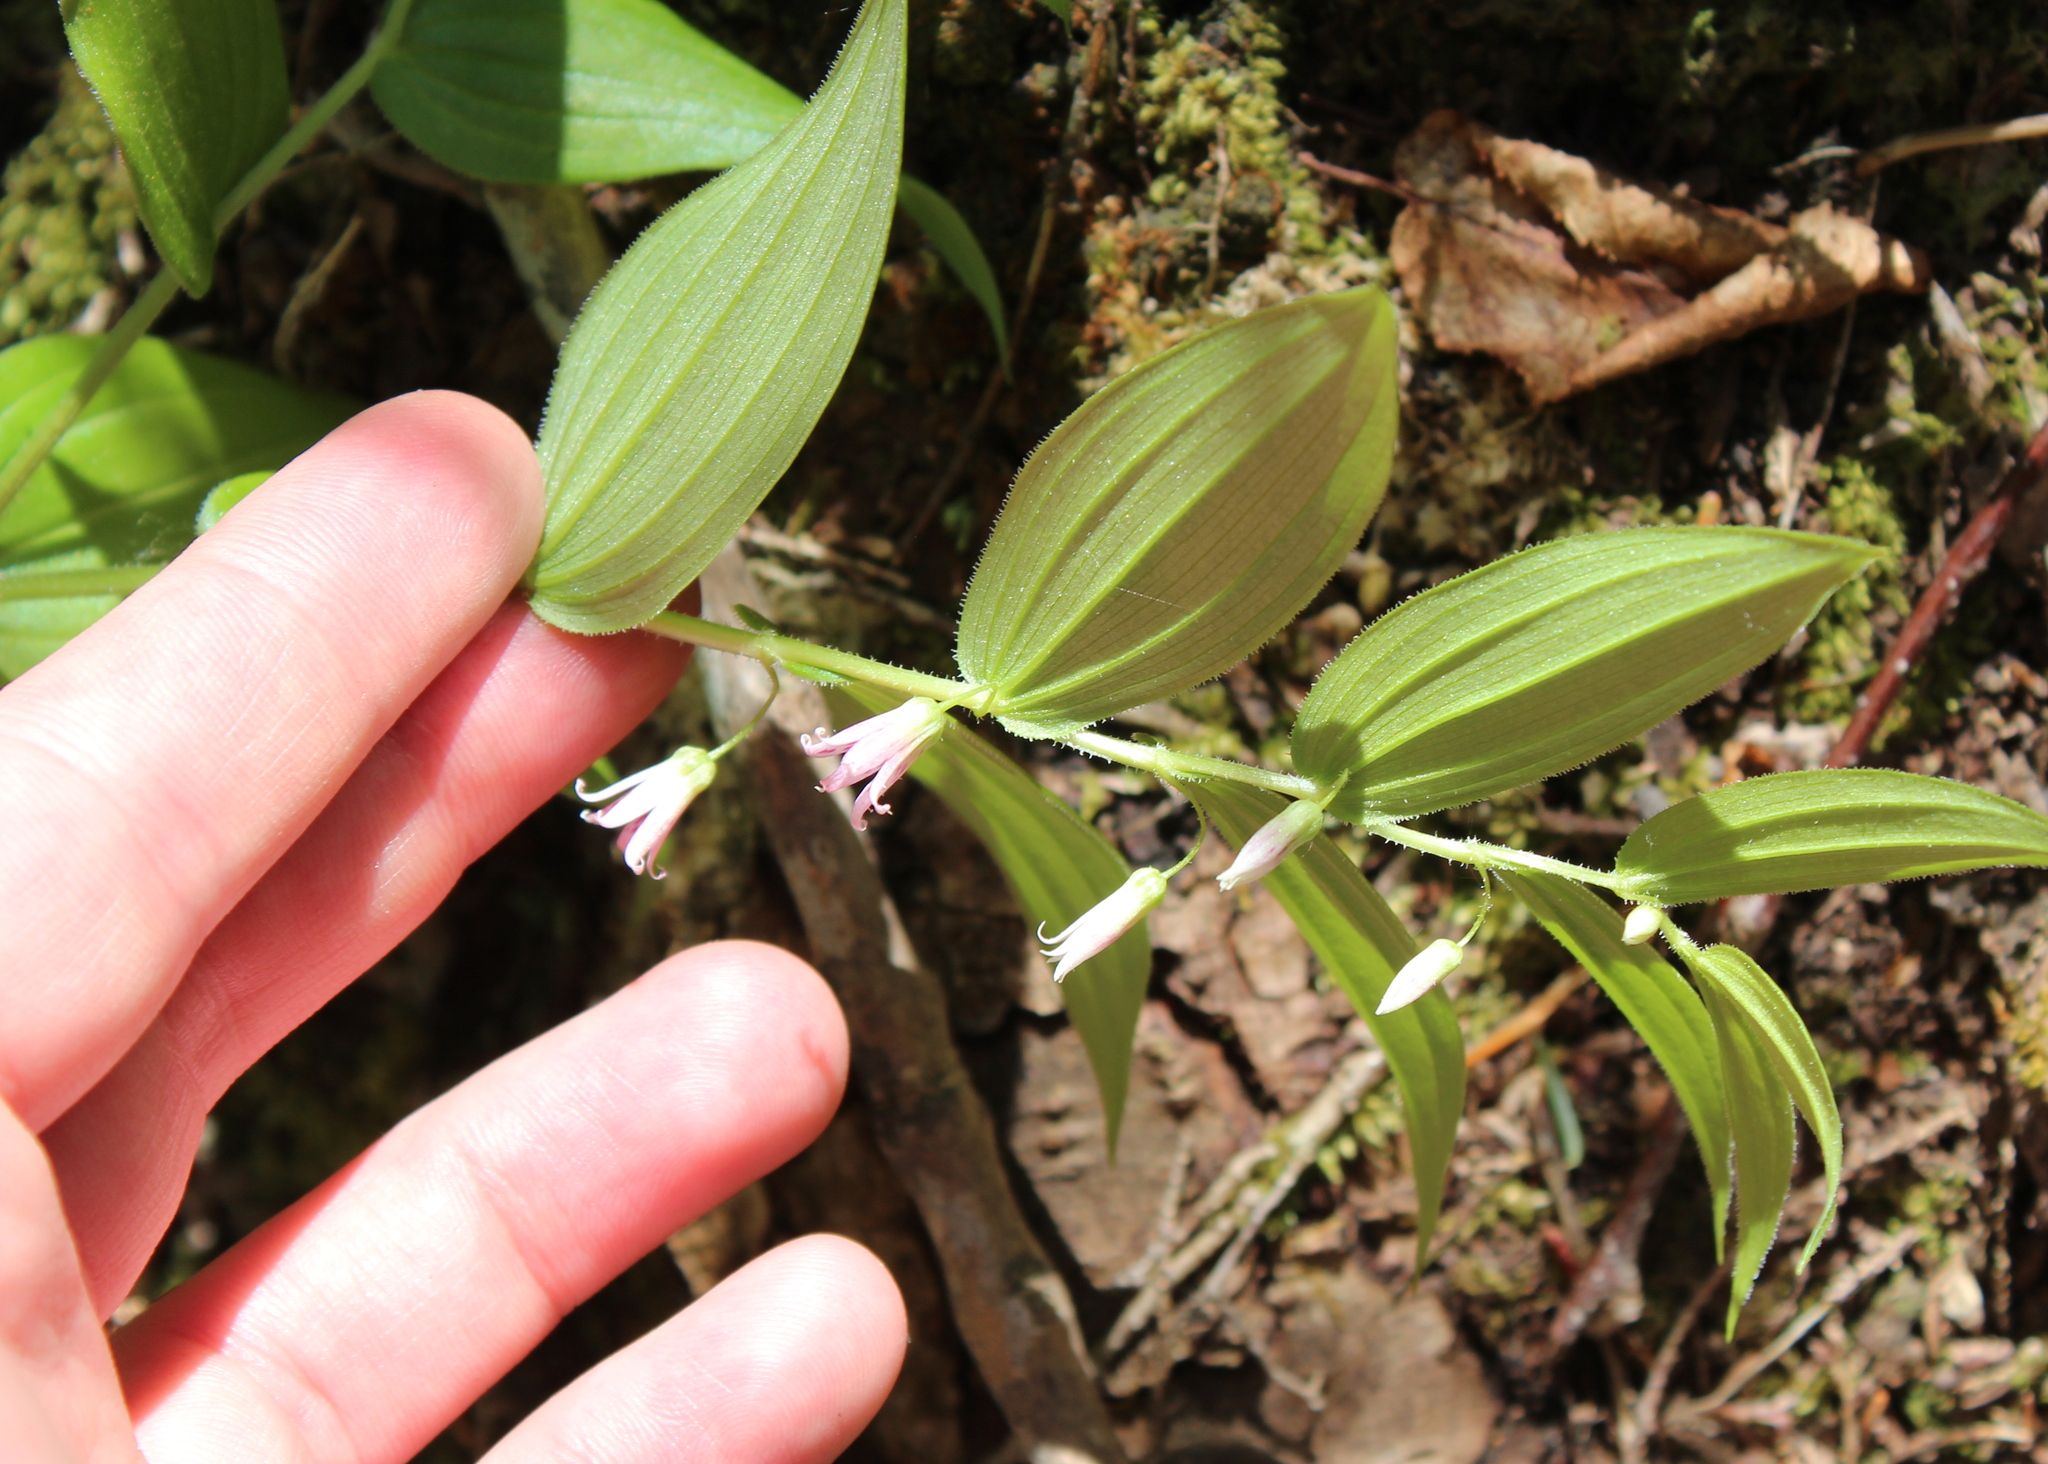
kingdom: Plantae
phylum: Tracheophyta
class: Liliopsida
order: Liliales
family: Liliaceae
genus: Streptopus
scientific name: Streptopus lanceolatus
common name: Rose mandarin
